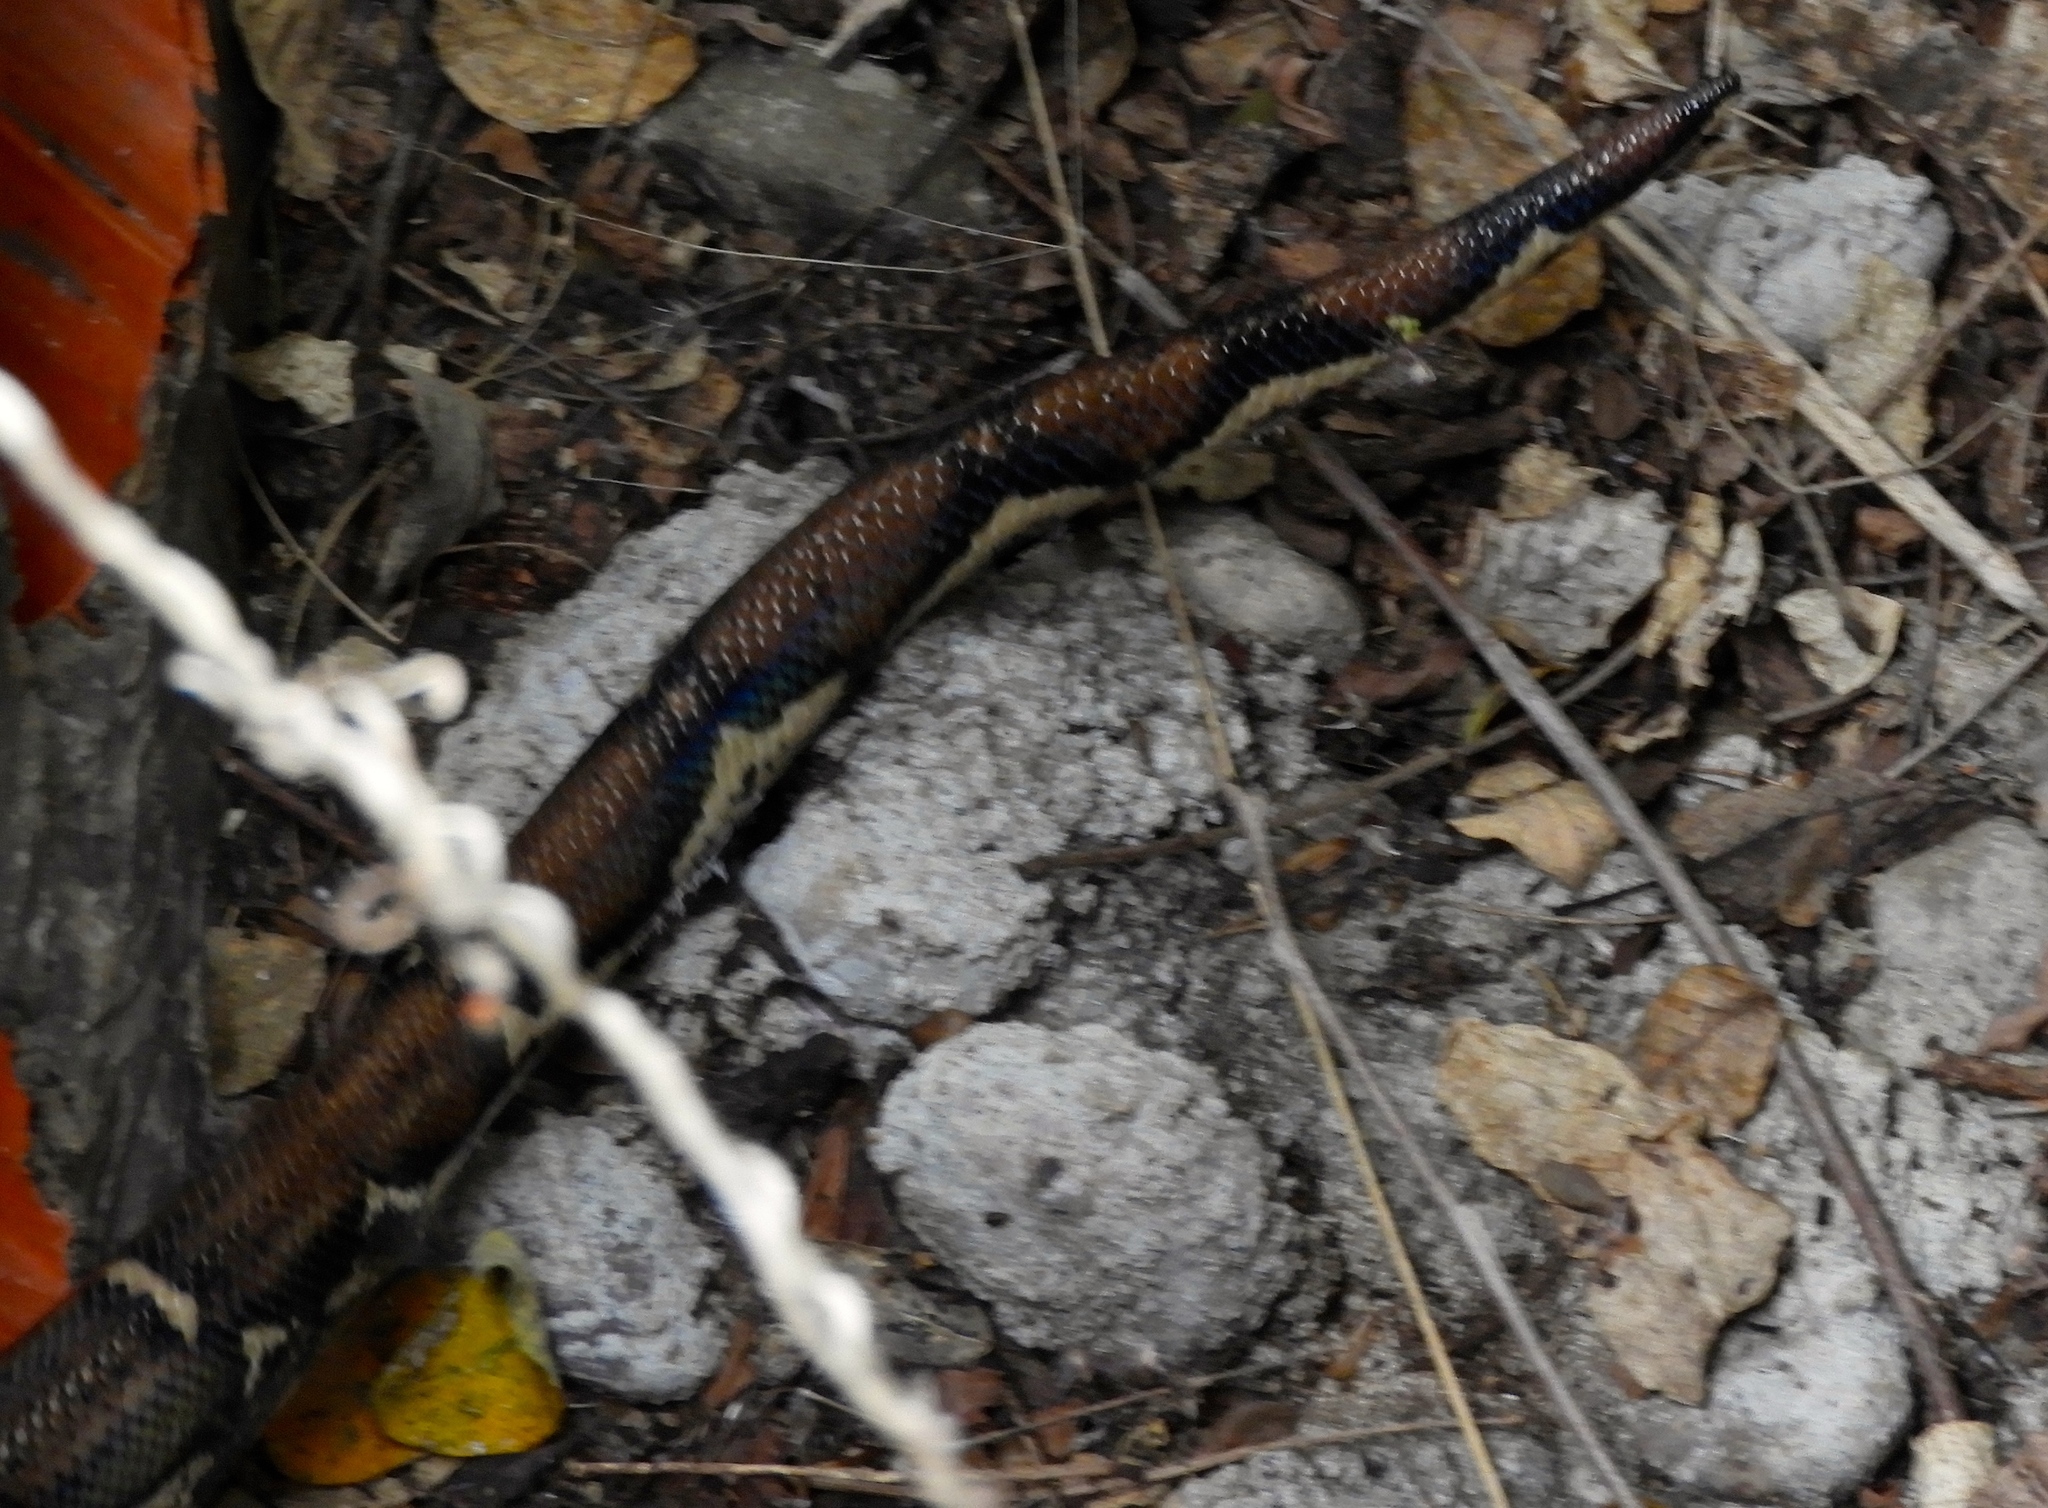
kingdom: Animalia
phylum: Chordata
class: Squamata
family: Boidae
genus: Boa
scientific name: Boa
